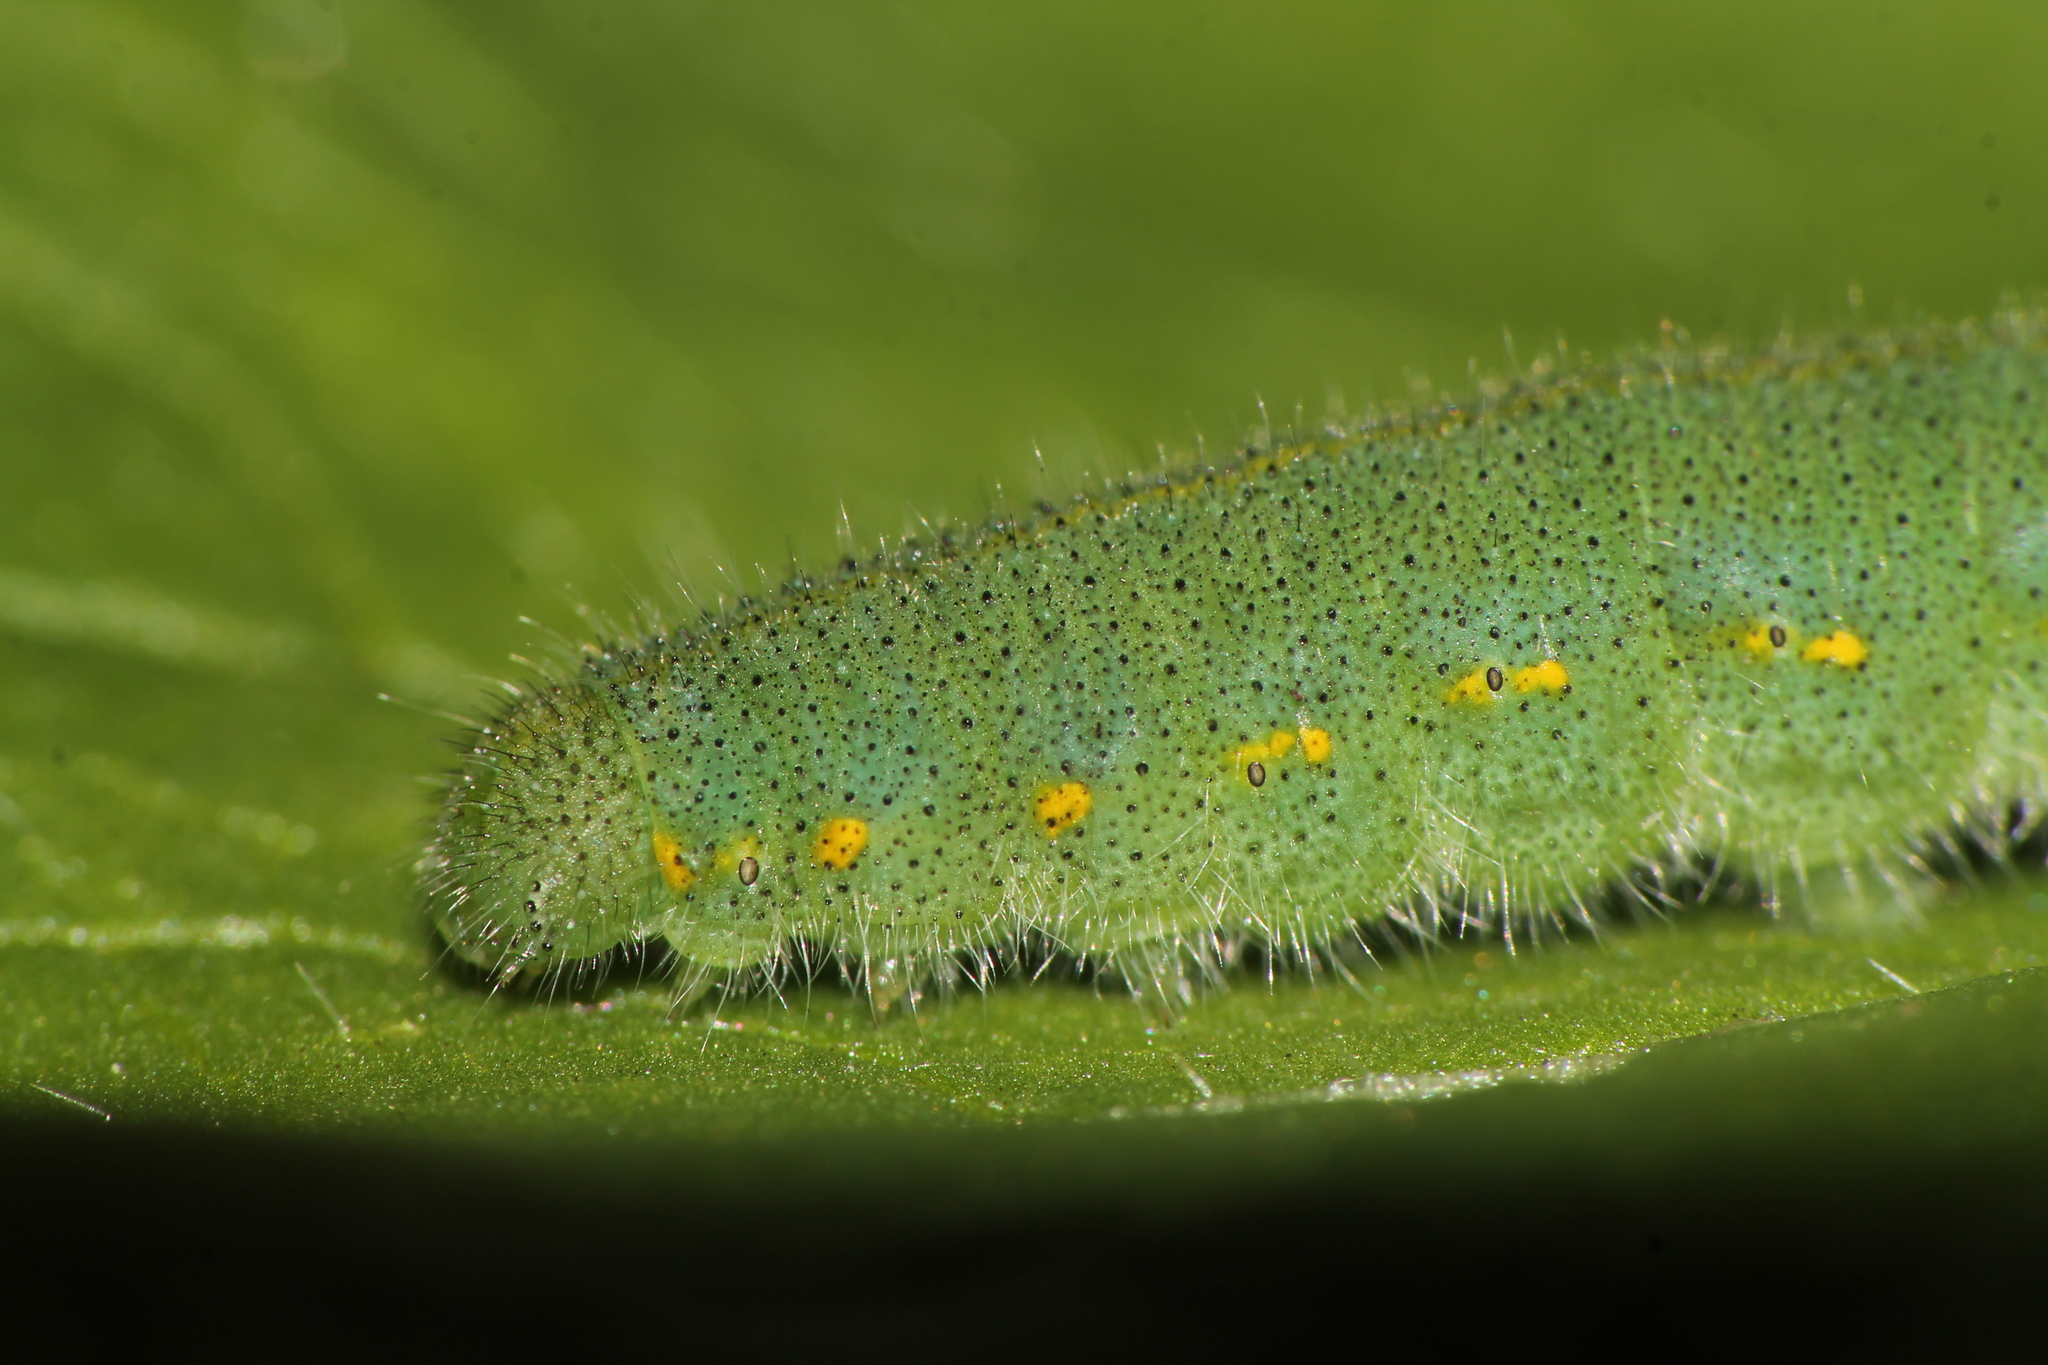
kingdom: Animalia
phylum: Arthropoda
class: Insecta
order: Lepidoptera
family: Pieridae
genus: Pieris
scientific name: Pieris rapae
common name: Small white
